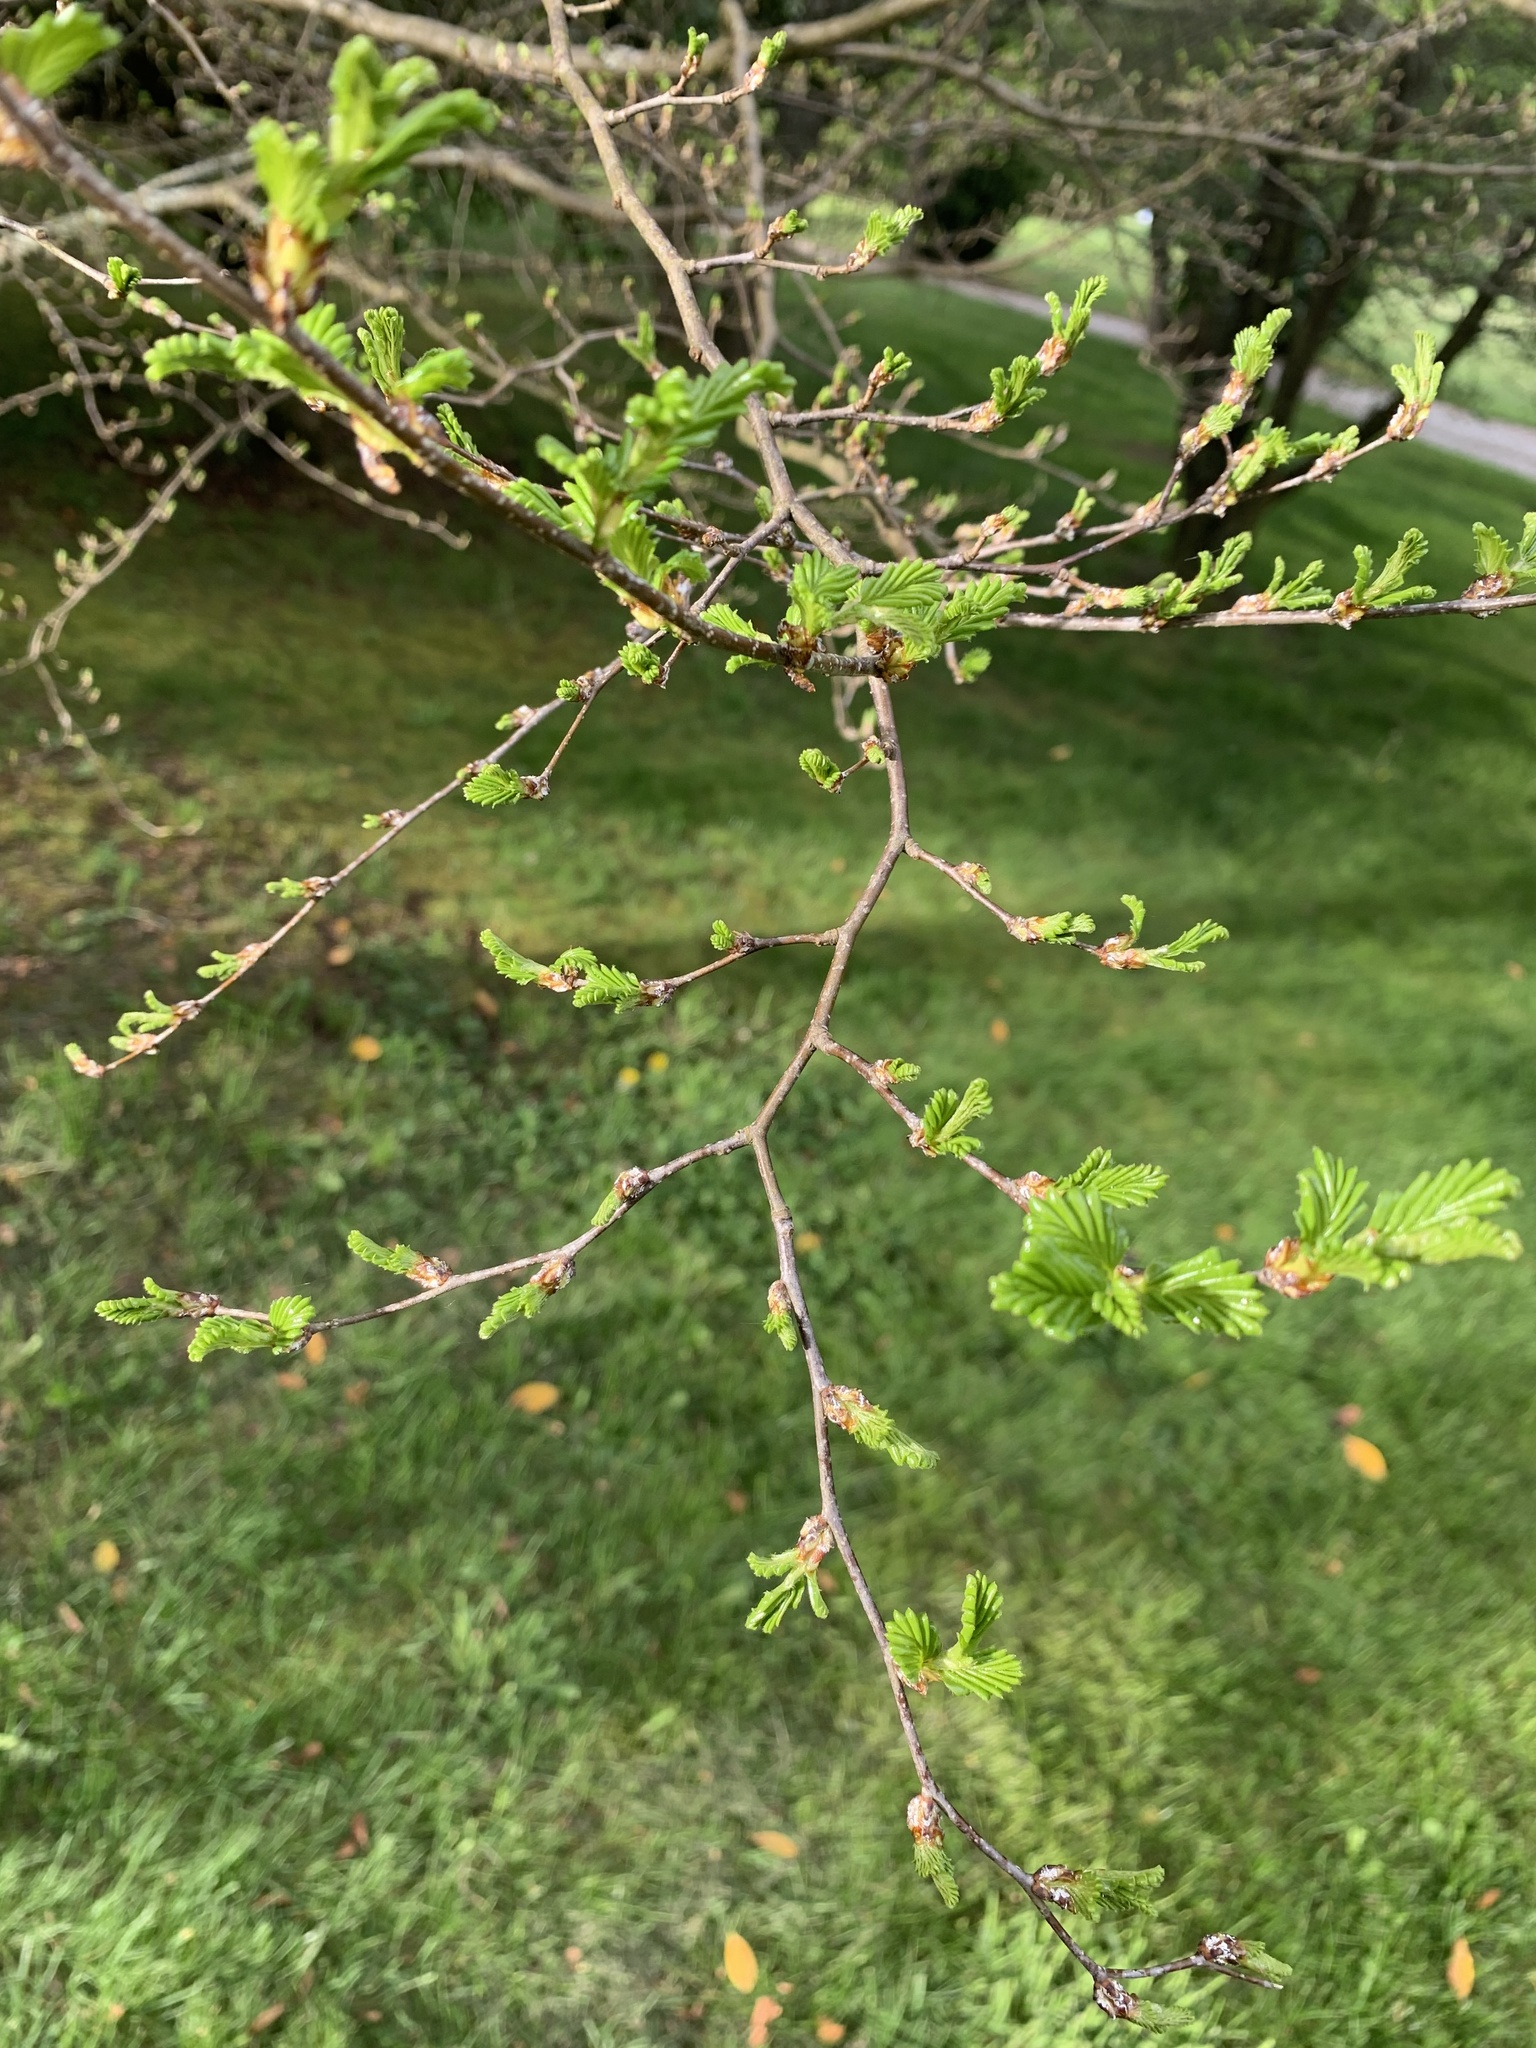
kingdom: Plantae
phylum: Tracheophyta
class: Magnoliopsida
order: Fagales
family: Nothofagaceae
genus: Nothofagus
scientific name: Nothofagus pumilio
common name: Lenga beech
